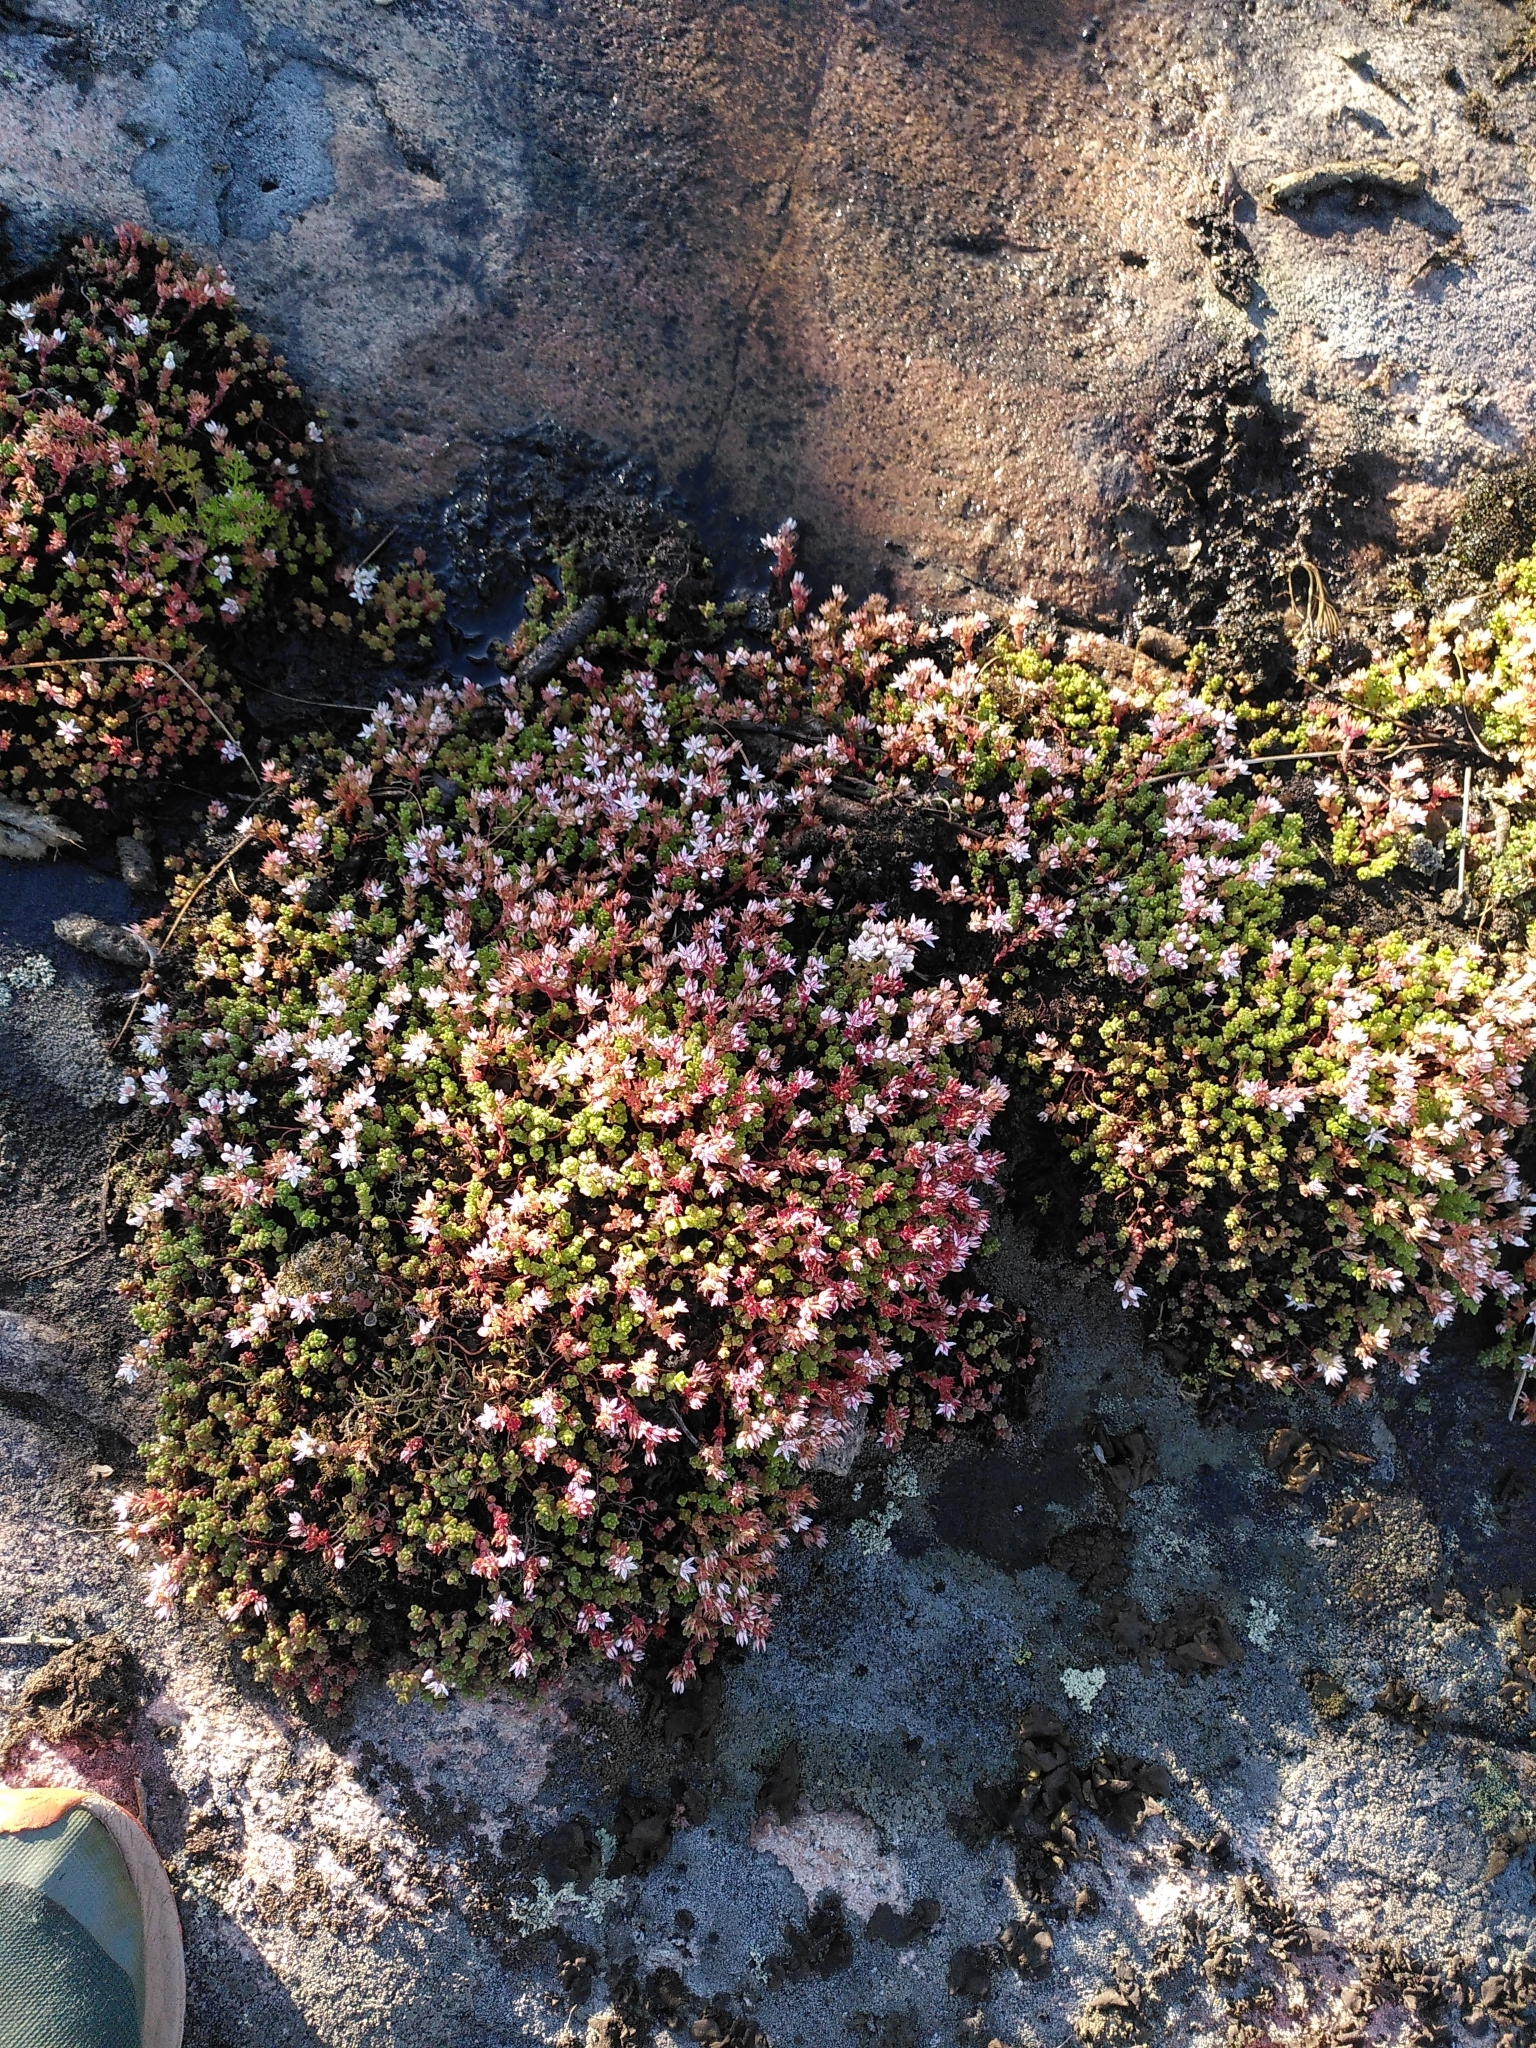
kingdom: Plantae
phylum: Tracheophyta
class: Magnoliopsida
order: Saxifragales
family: Crassulaceae
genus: Sedum
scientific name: Sedum anglicum
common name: English stonecrop
